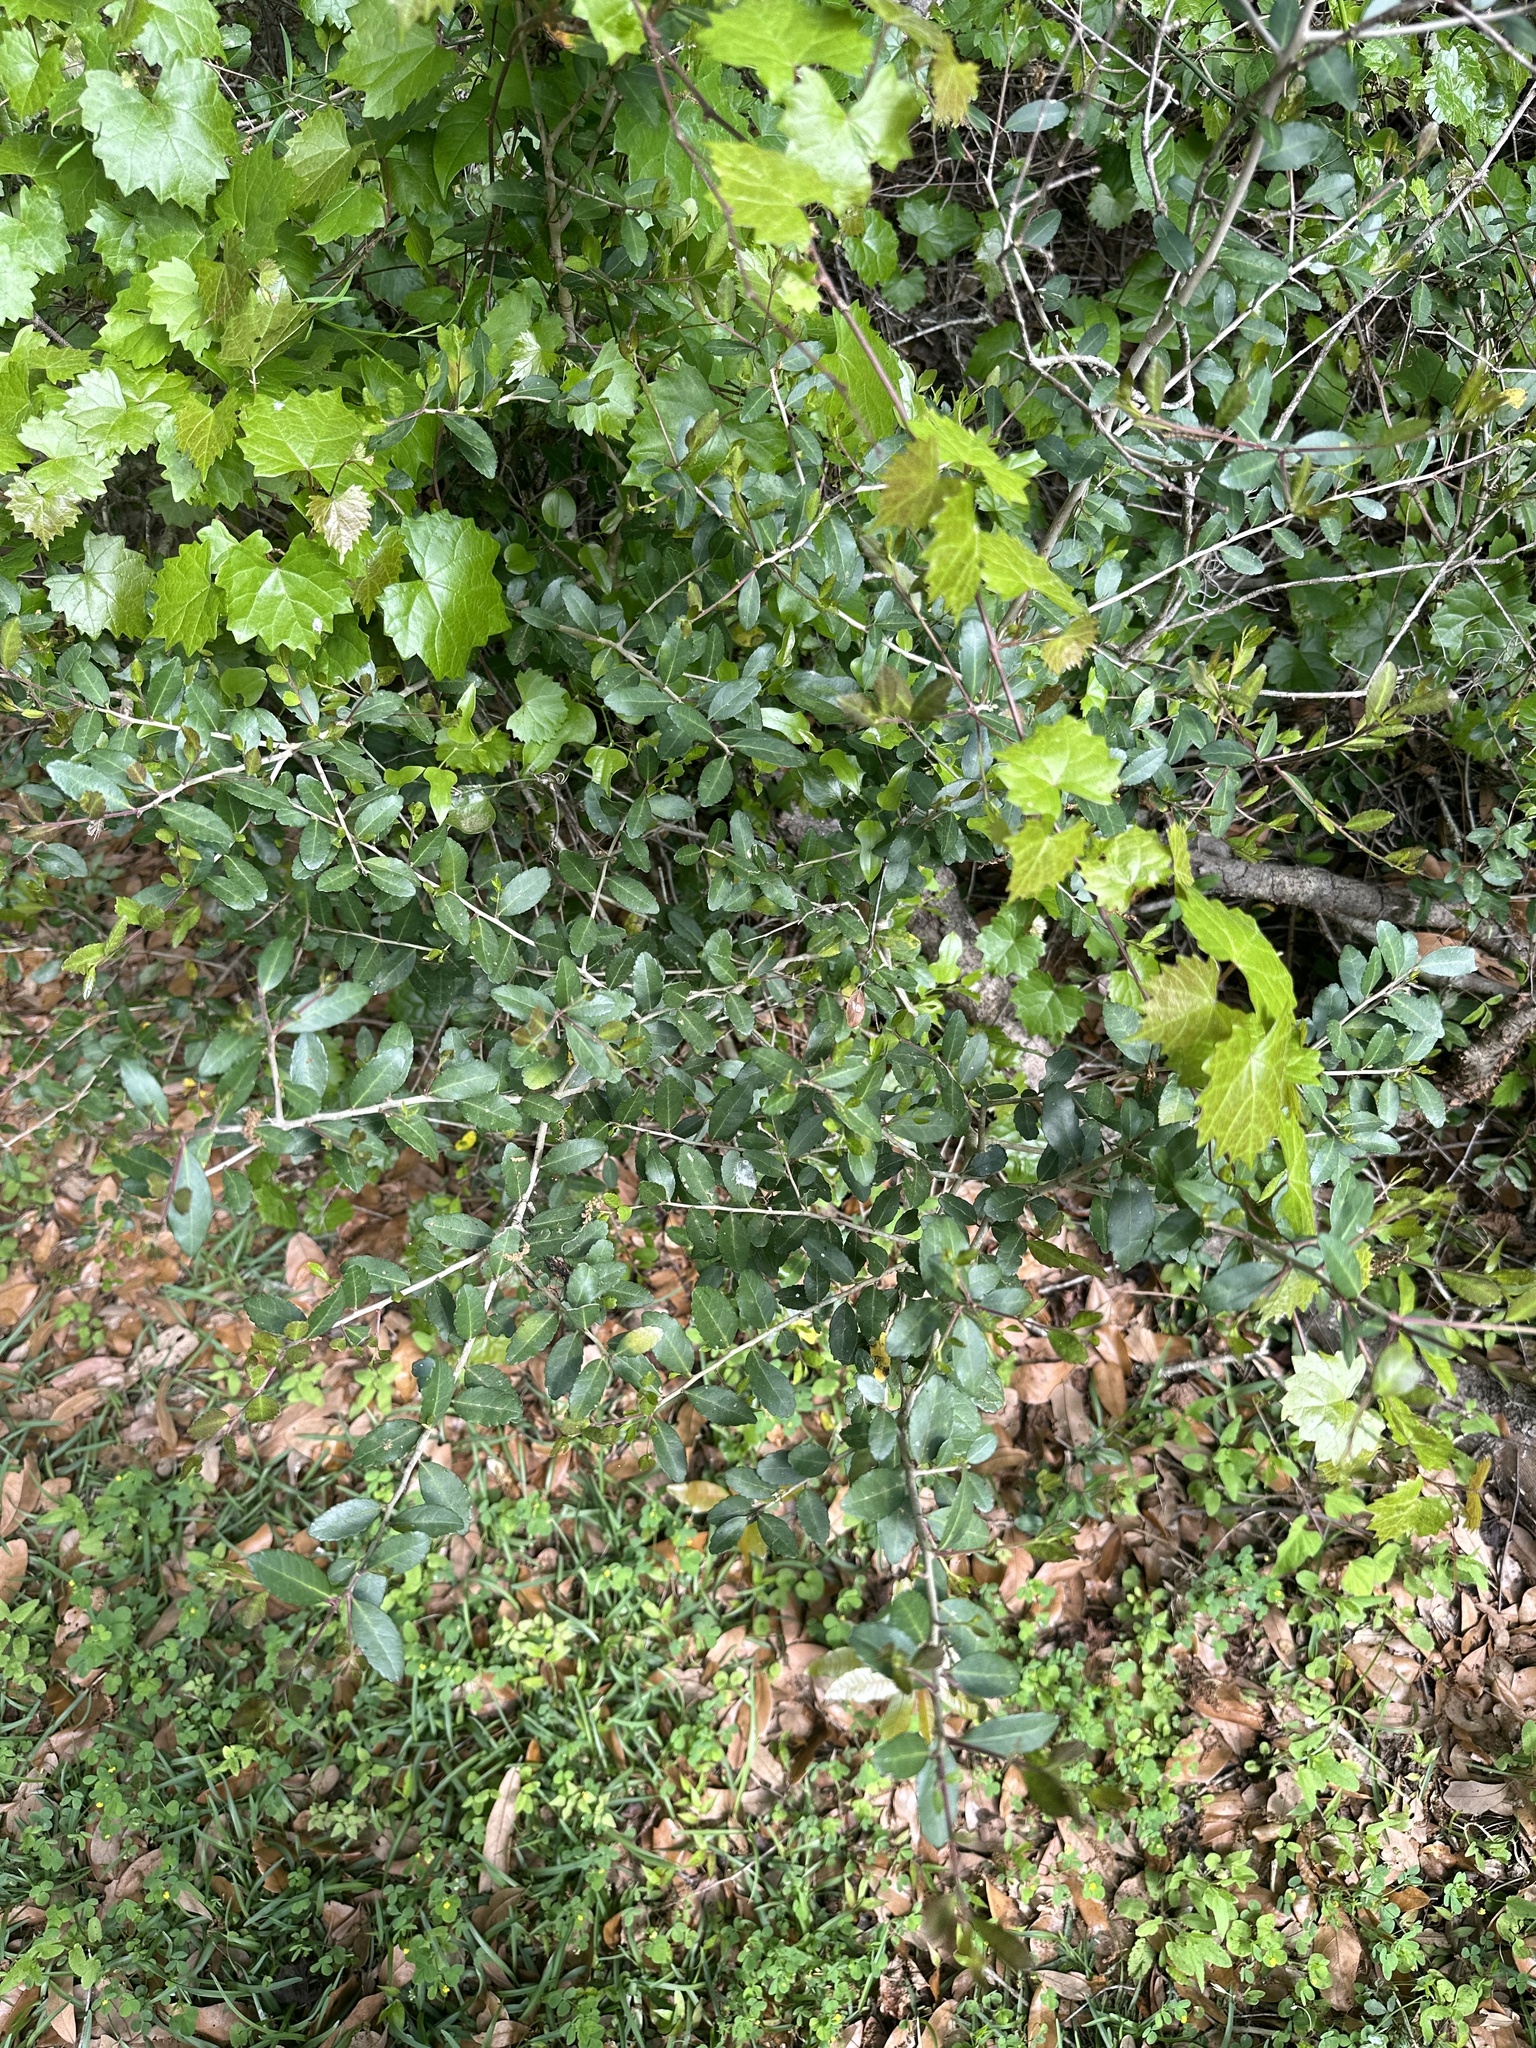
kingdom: Plantae
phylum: Tracheophyta
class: Magnoliopsida
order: Aquifoliales
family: Aquifoliaceae
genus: Ilex
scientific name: Ilex vomitoria
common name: Yaupon holly
